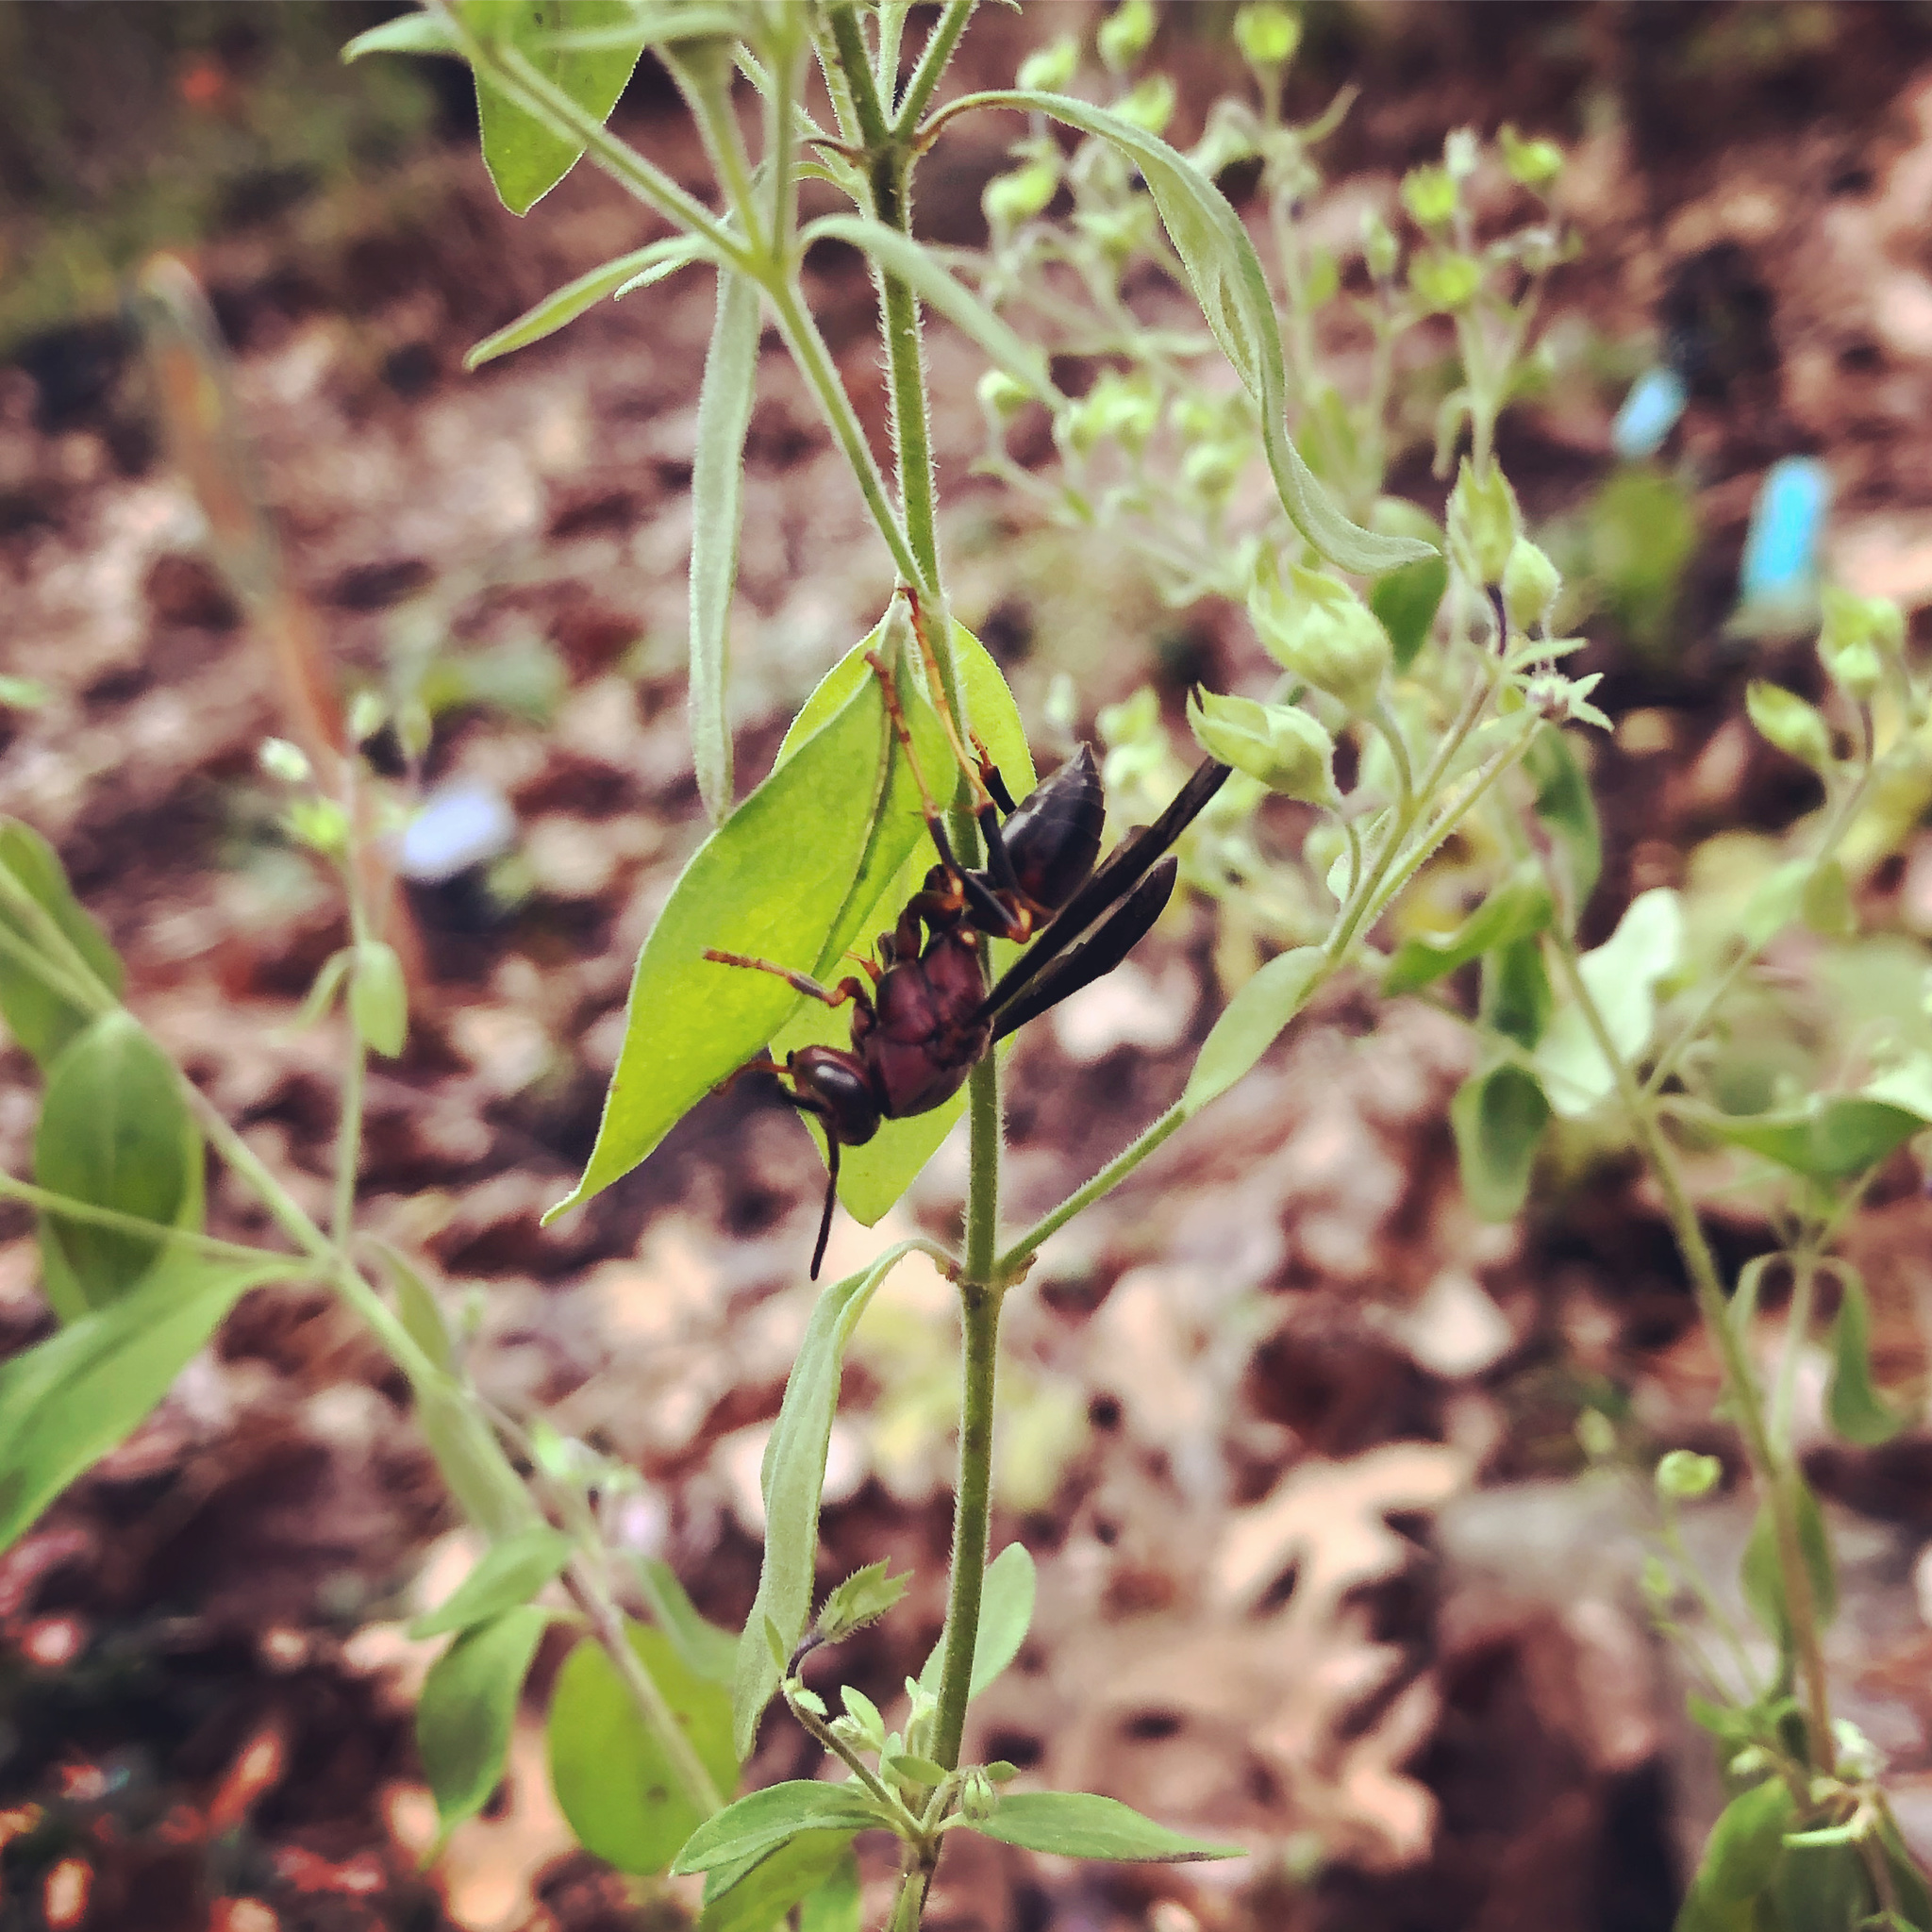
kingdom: Animalia
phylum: Arthropoda
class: Insecta
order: Hymenoptera
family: Eumenidae
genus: Polistes
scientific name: Polistes metricus
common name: Metric paper wasp
